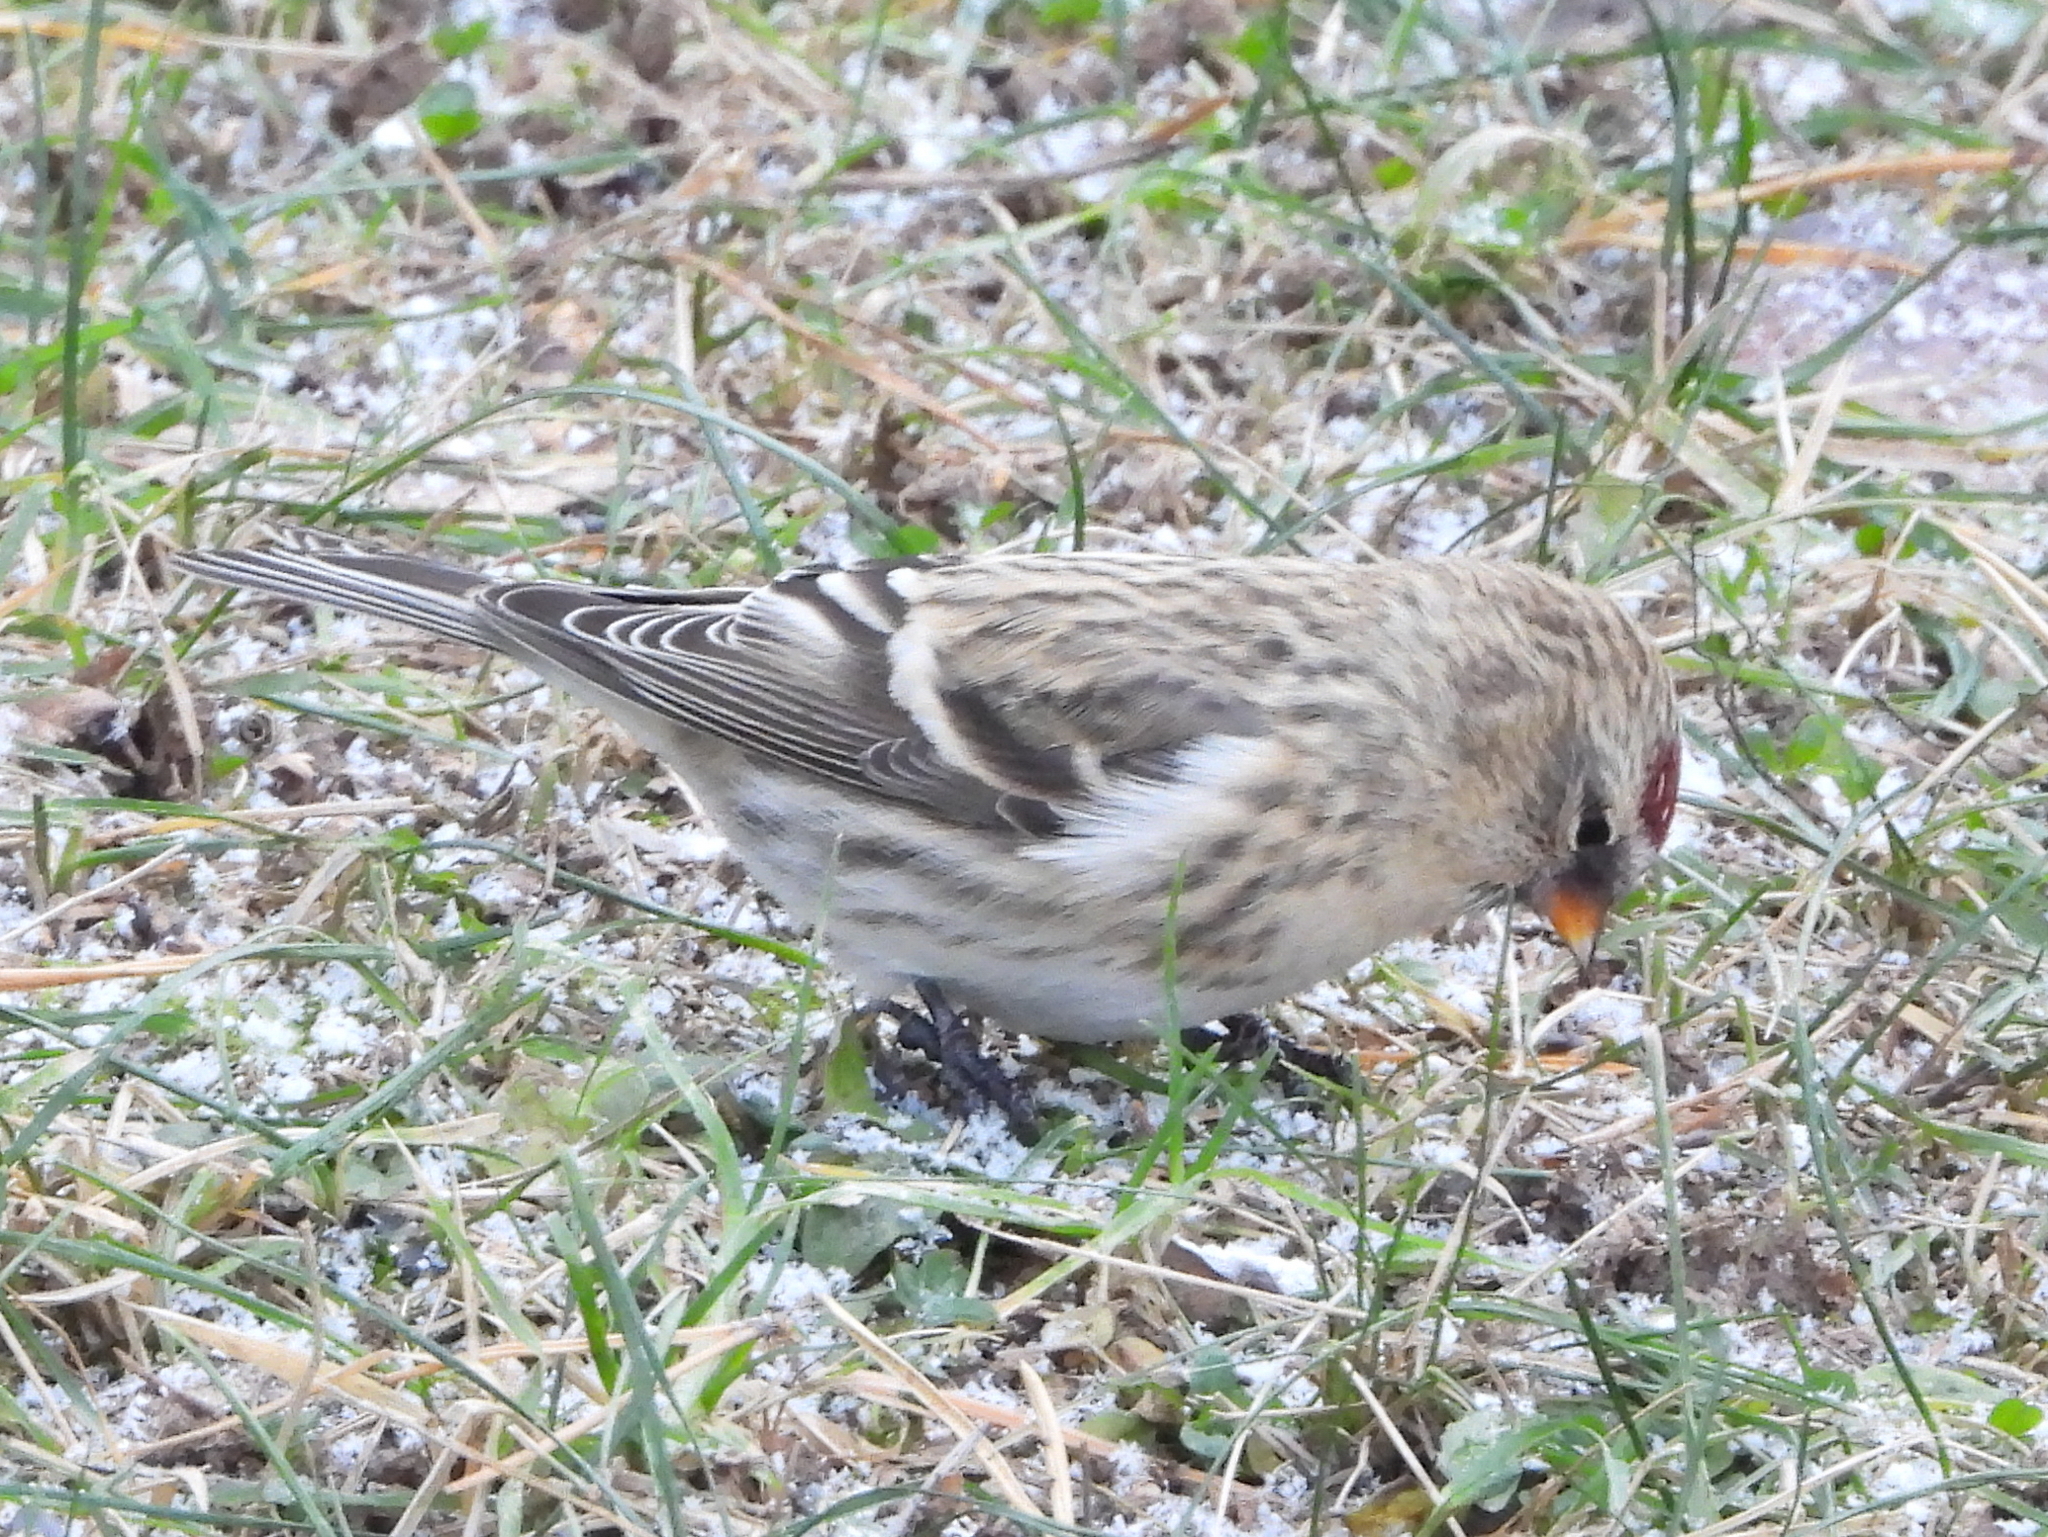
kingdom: Animalia
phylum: Chordata
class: Aves
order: Passeriformes
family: Fringillidae
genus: Acanthis
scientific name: Acanthis flammea
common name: Common redpoll
